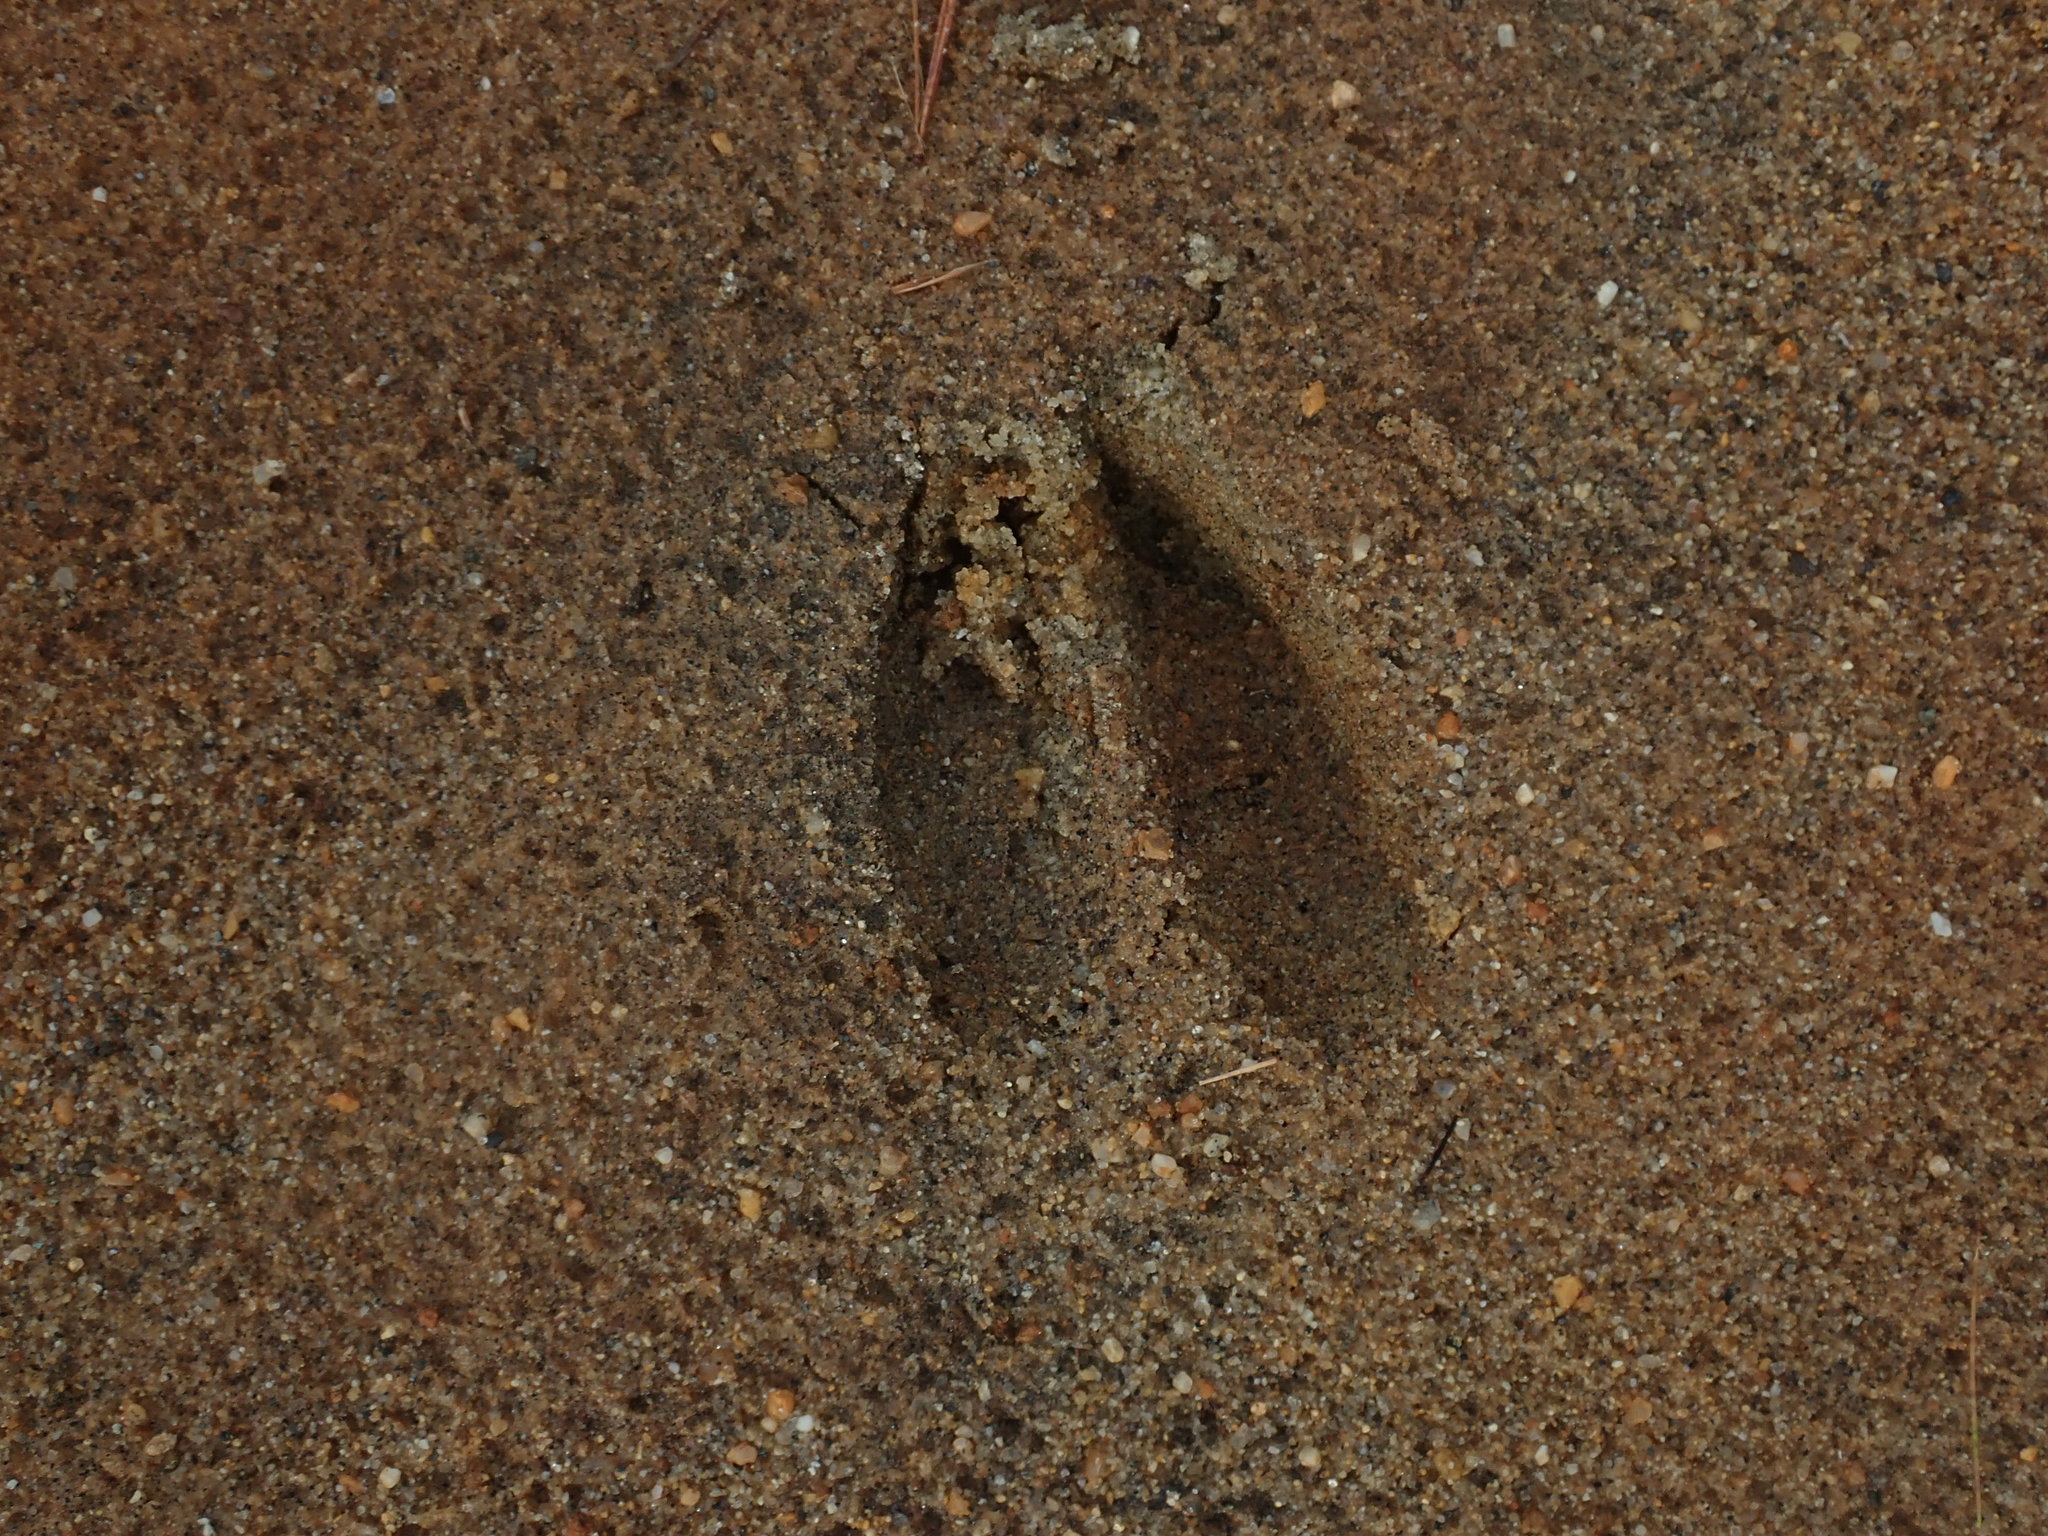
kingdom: Animalia
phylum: Chordata
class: Mammalia
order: Artiodactyla
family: Cervidae
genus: Odocoileus
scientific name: Odocoileus virginianus
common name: White-tailed deer
